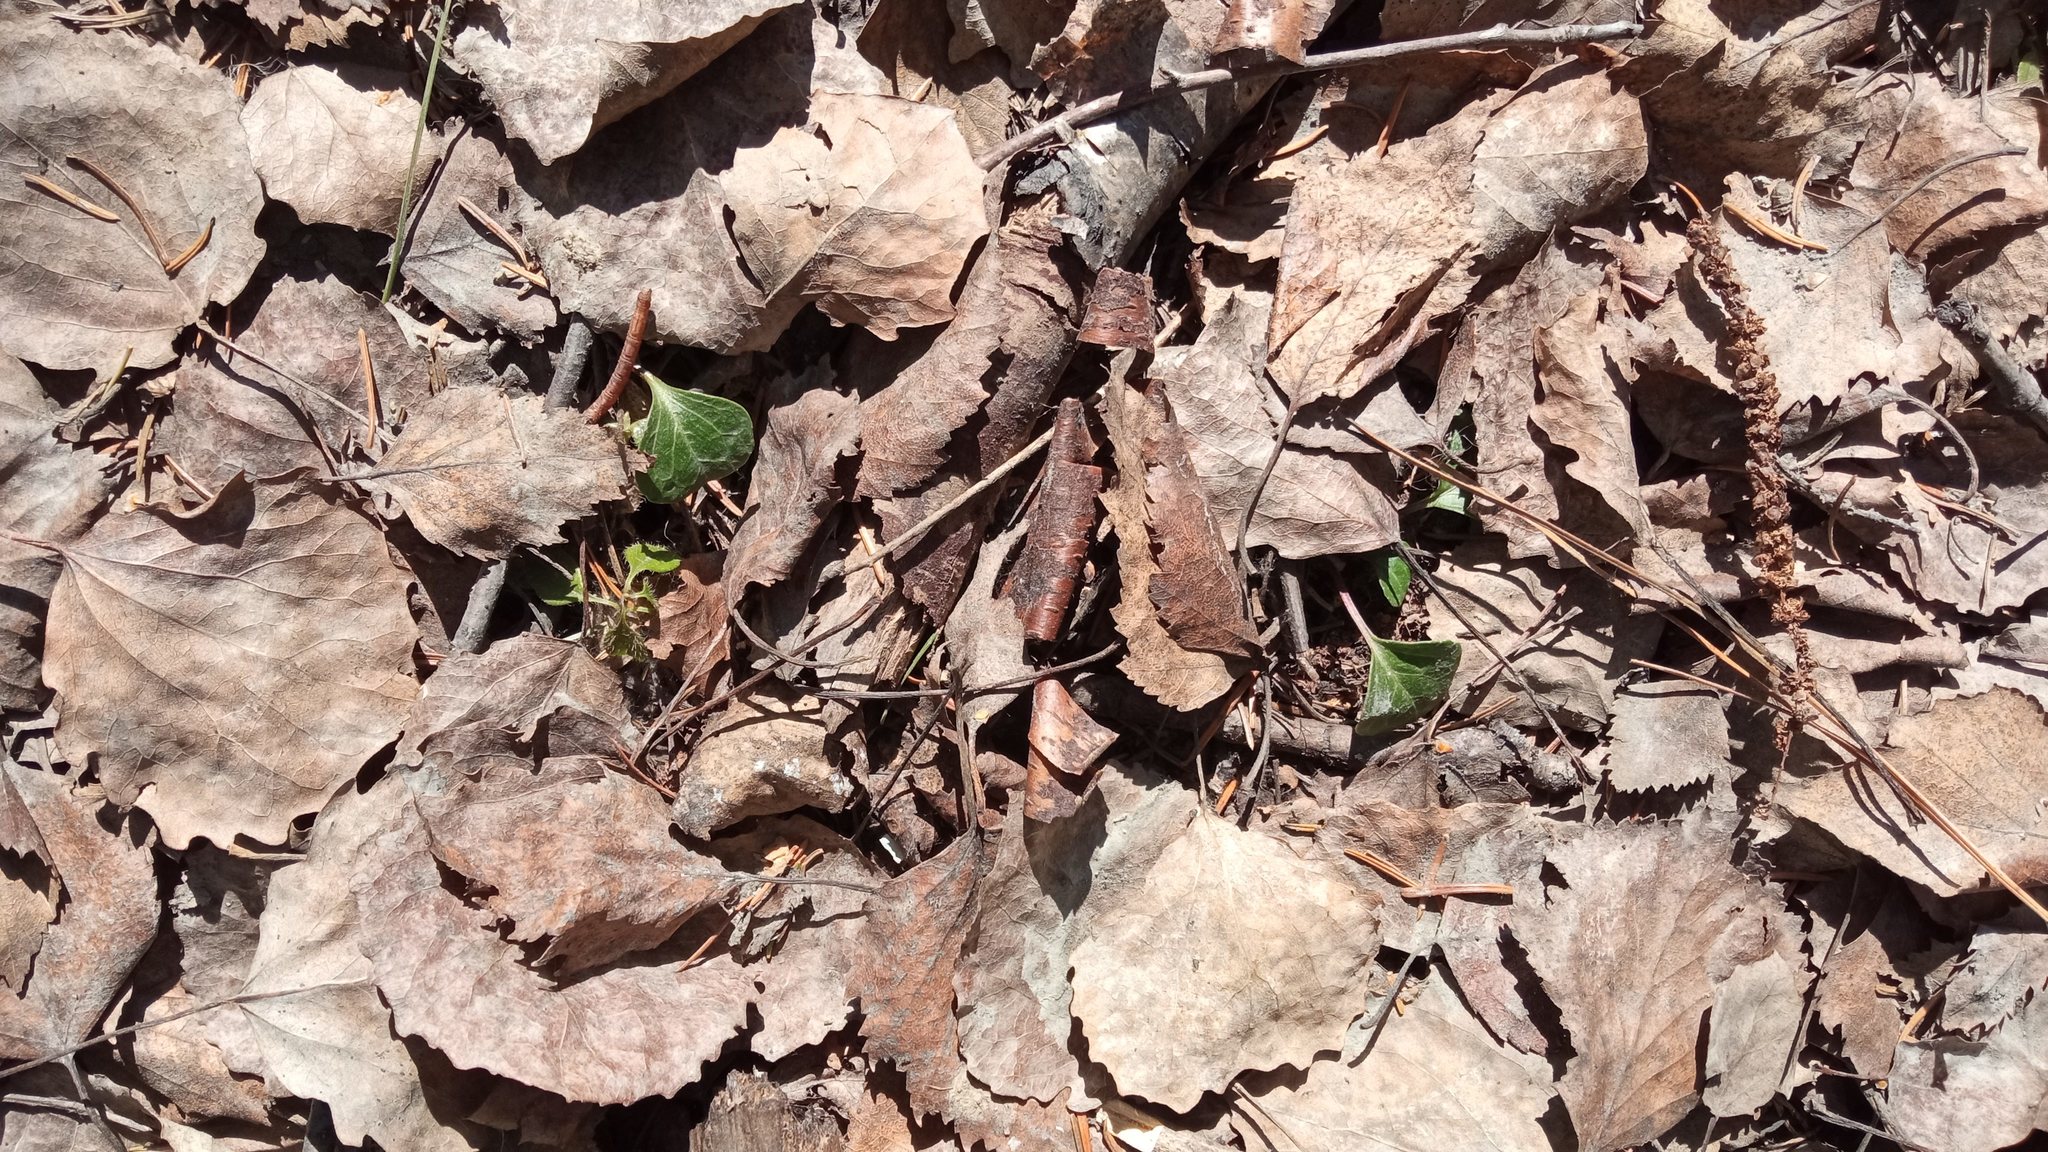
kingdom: Plantae
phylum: Tracheophyta
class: Magnoliopsida
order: Ericales
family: Ericaceae
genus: Pyrola
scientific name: Pyrola chlorantha
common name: Green wintergreen
